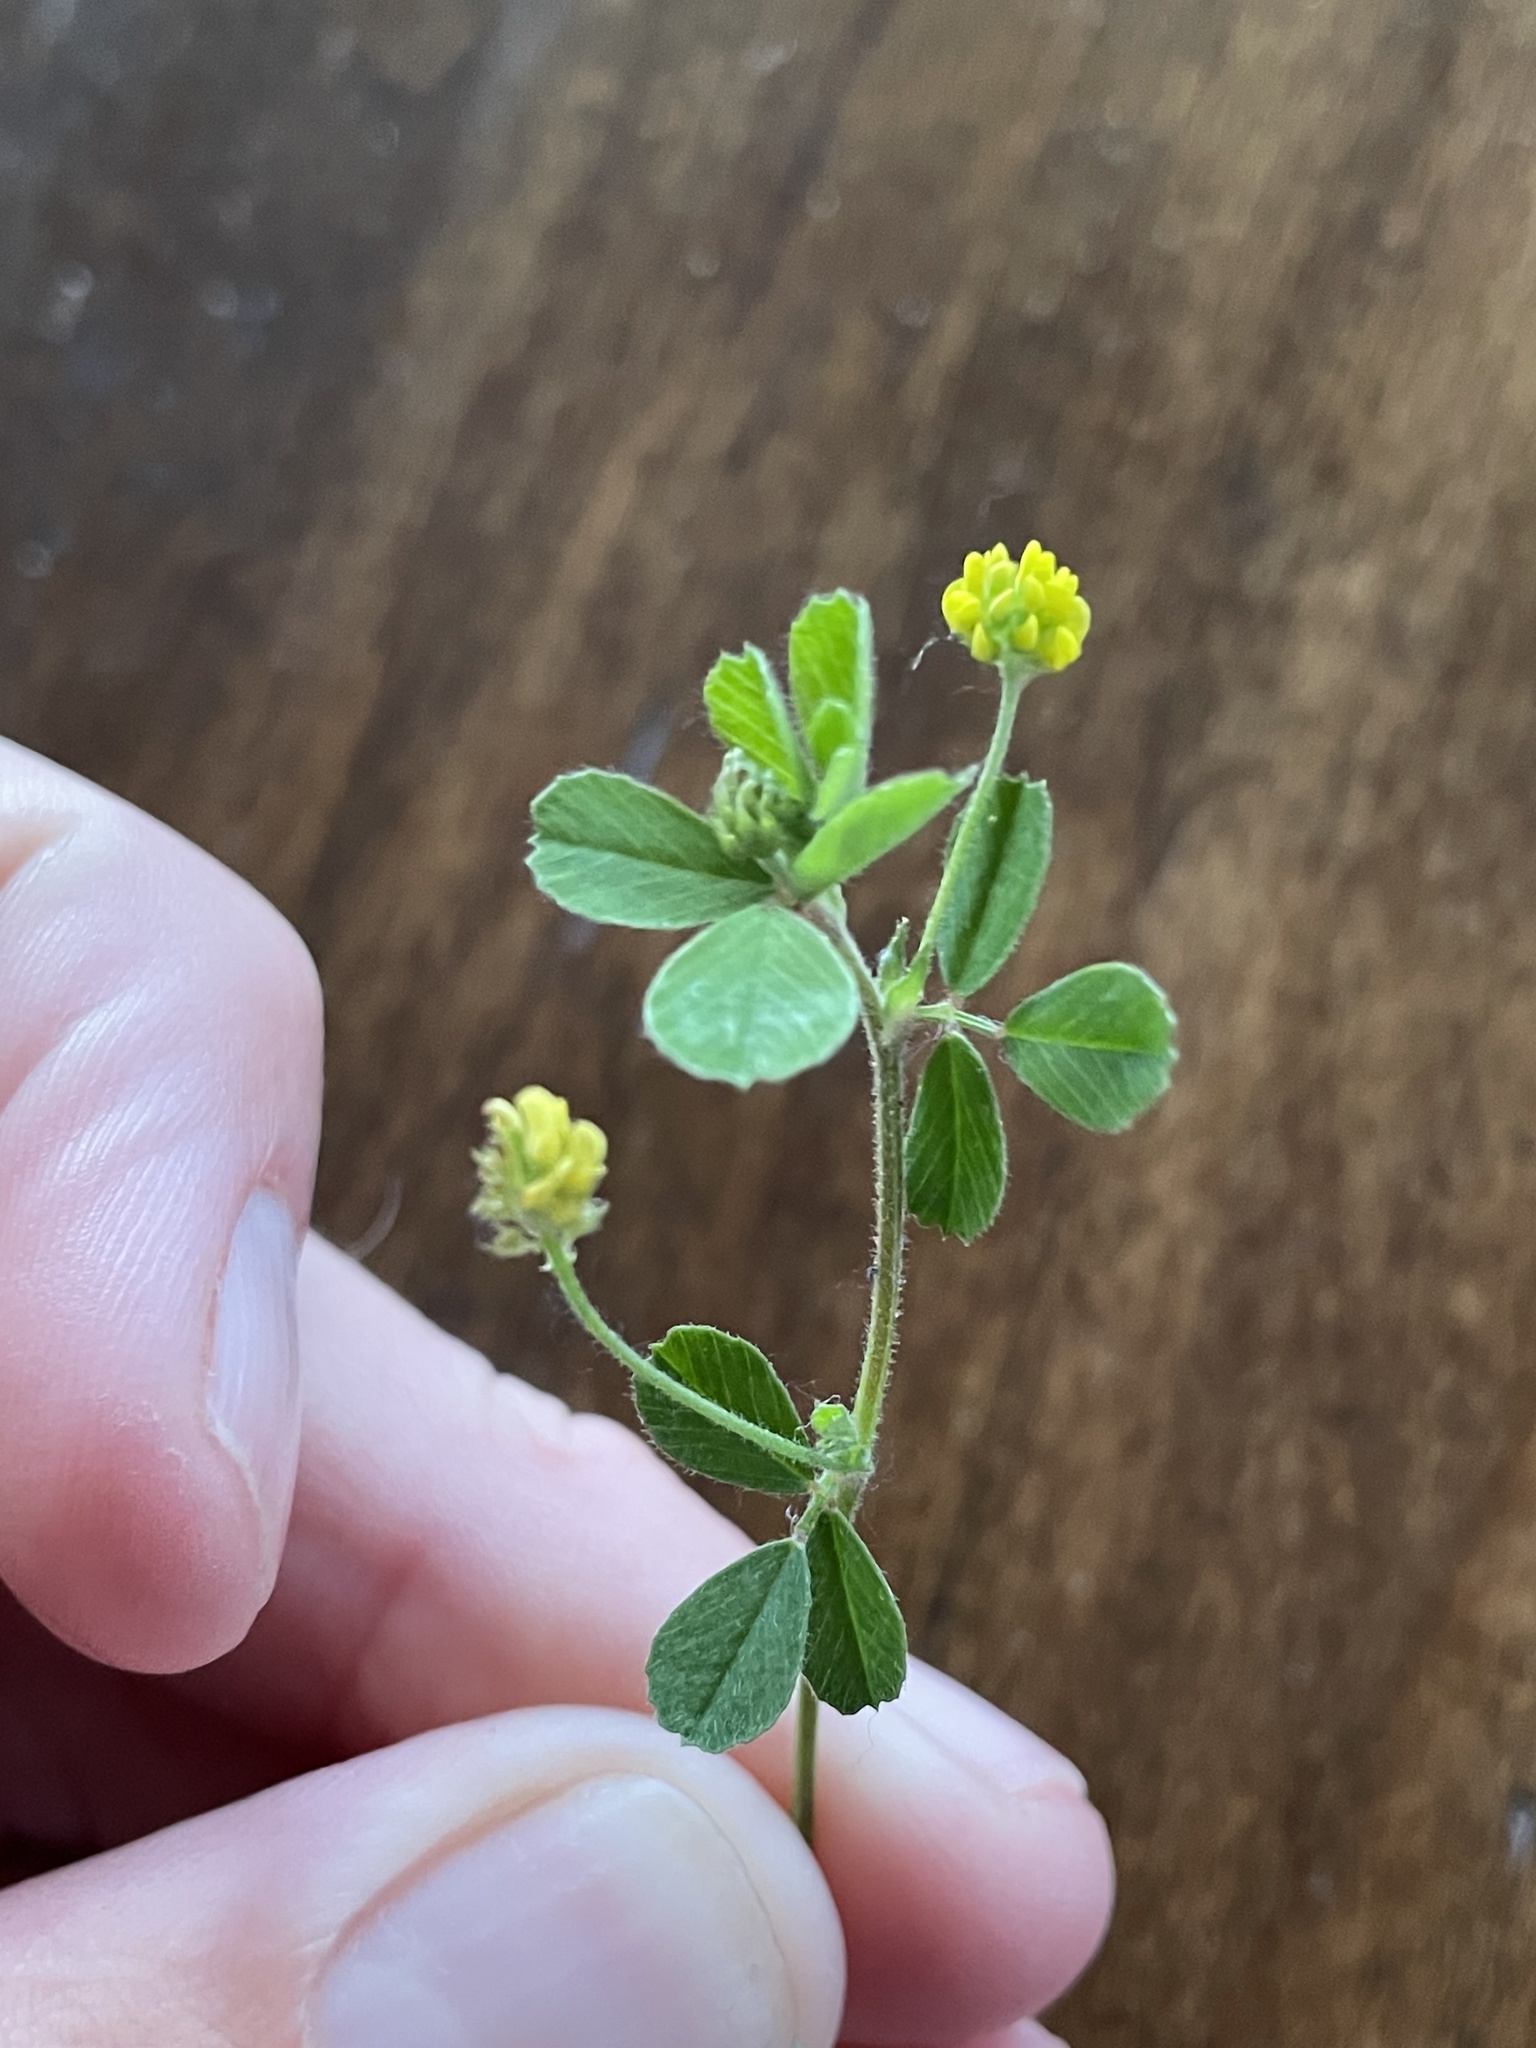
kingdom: Plantae
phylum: Tracheophyta
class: Magnoliopsida
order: Fabales
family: Fabaceae
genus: Medicago
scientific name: Medicago lupulina
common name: Black medick
